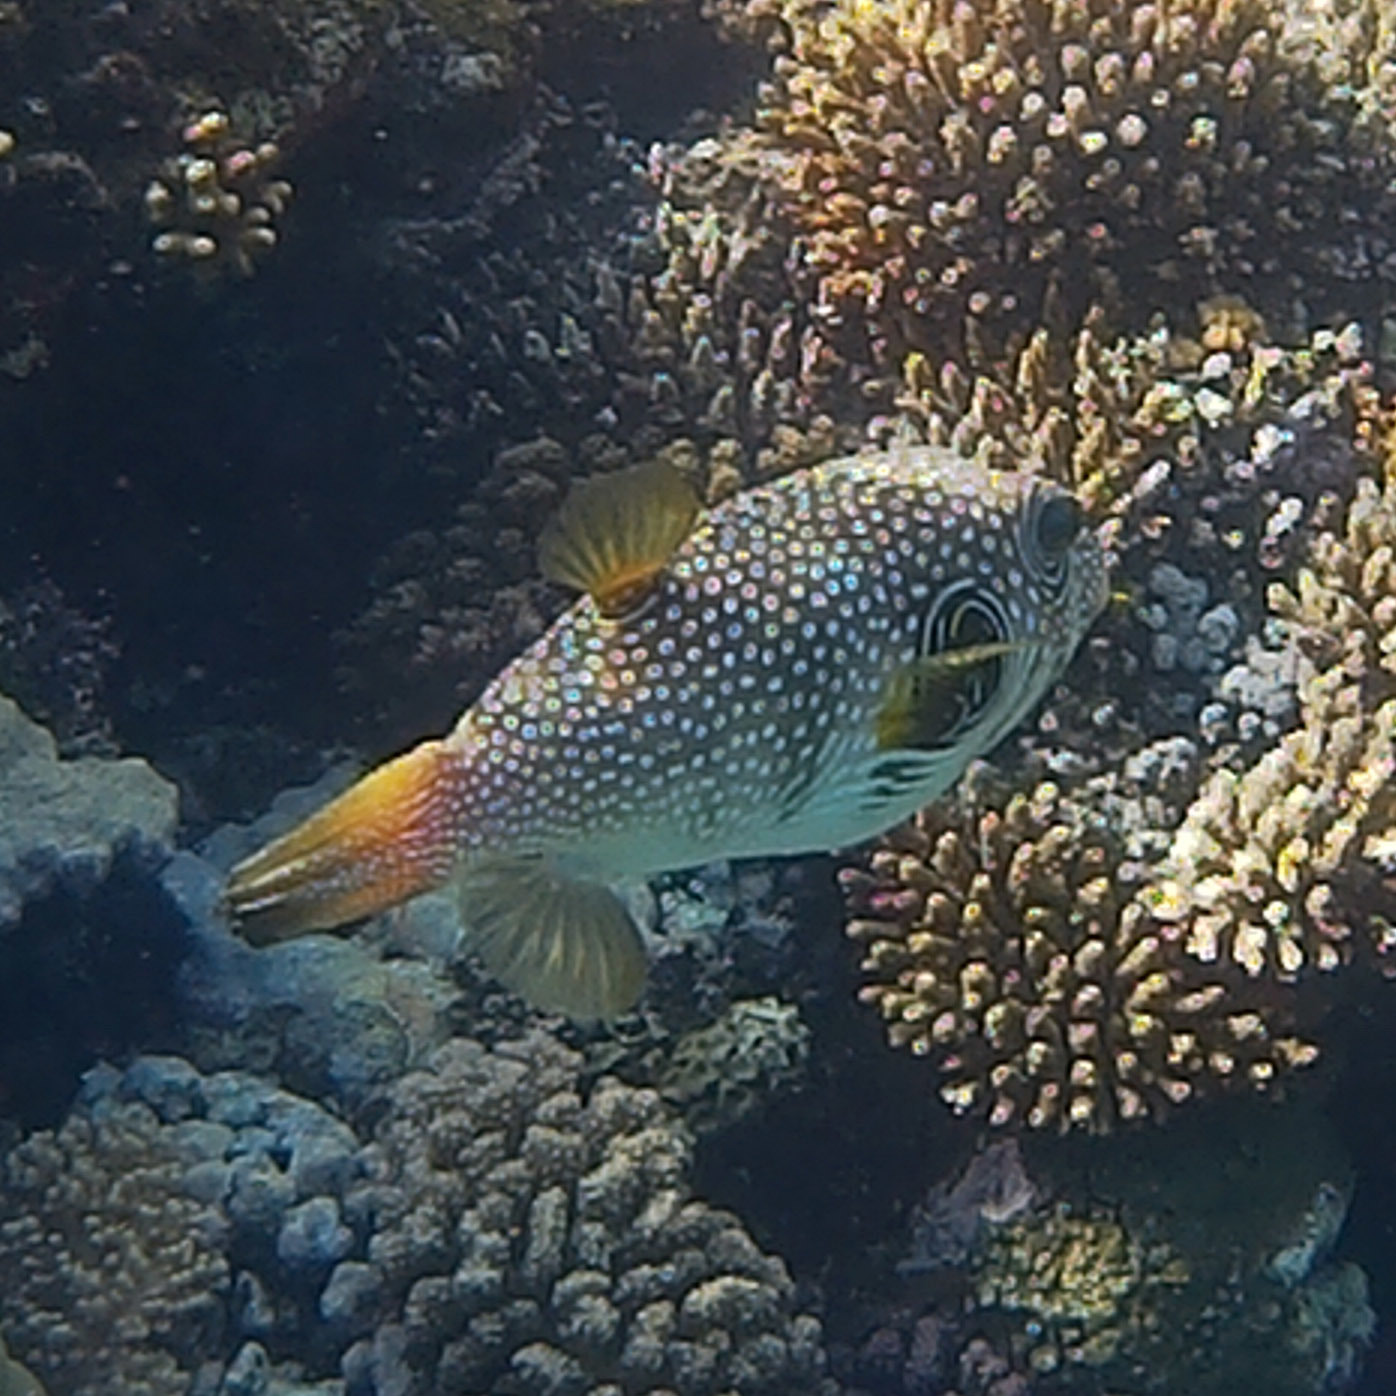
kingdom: Animalia
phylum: Chordata
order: Tetraodontiformes
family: Tetraodontidae
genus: Arothron
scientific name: Arothron hispidus
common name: Stripebelly puffer
